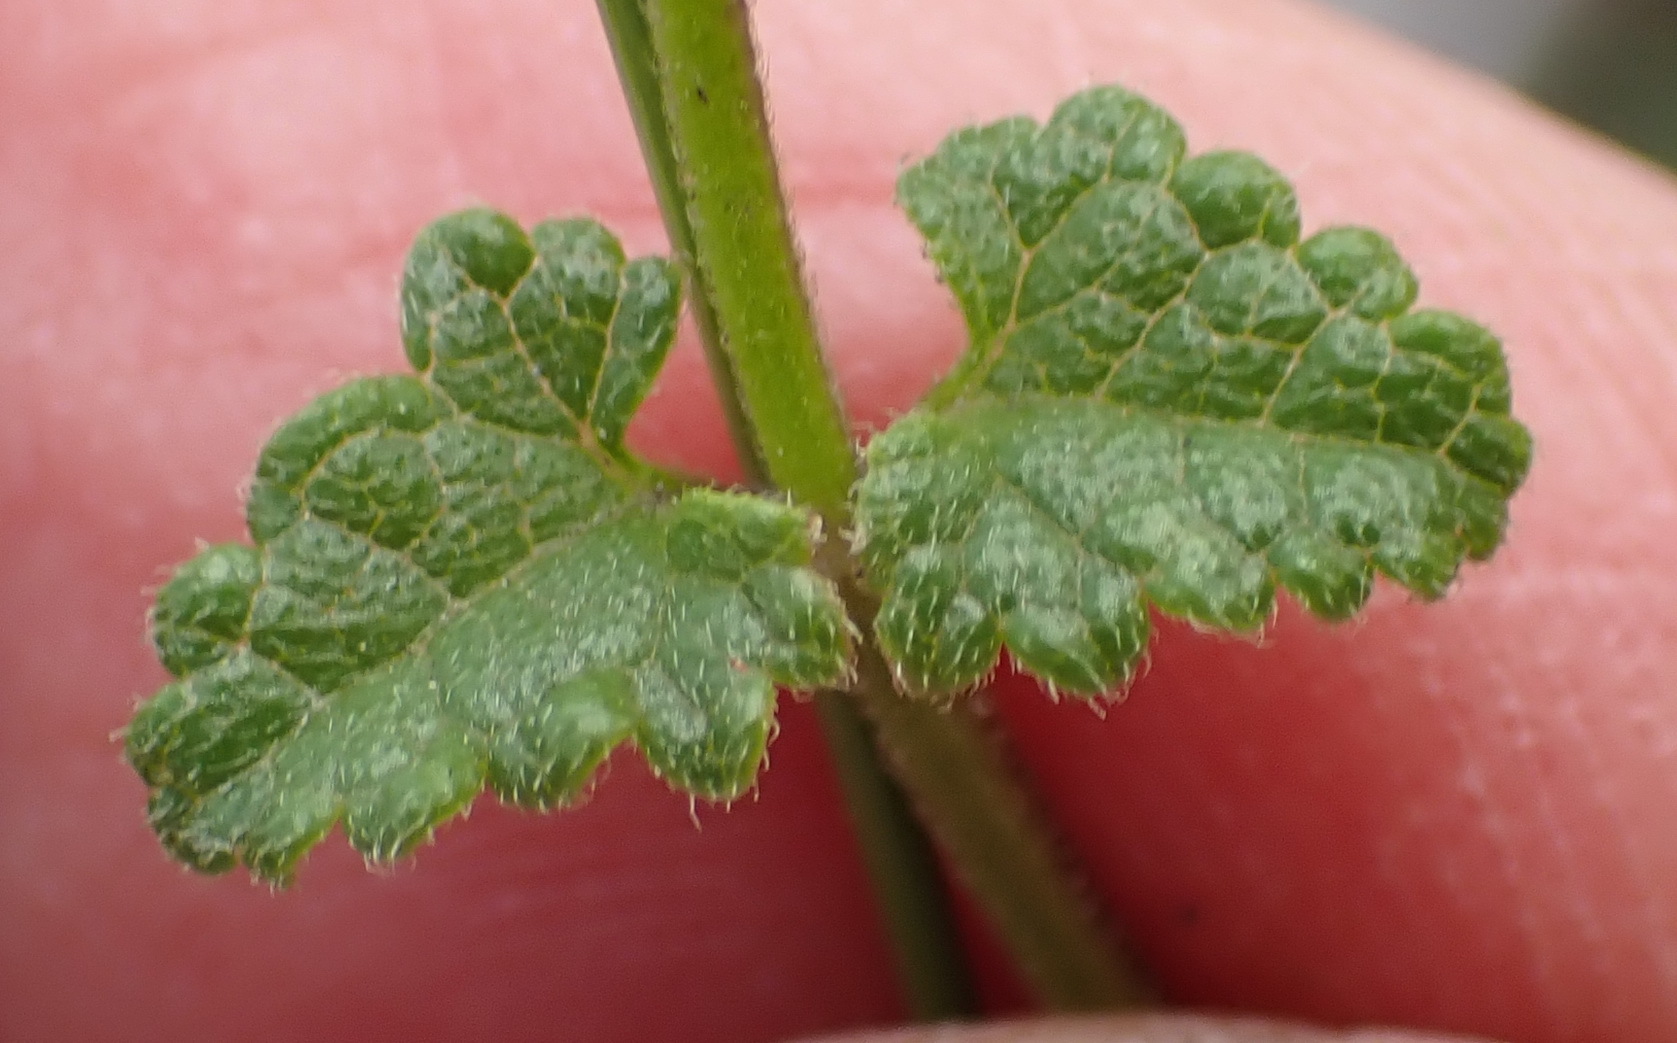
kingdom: Plantae
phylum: Tracheophyta
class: Magnoliopsida
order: Lamiales
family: Lamiaceae
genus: Stachys
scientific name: Stachys aethiopica
